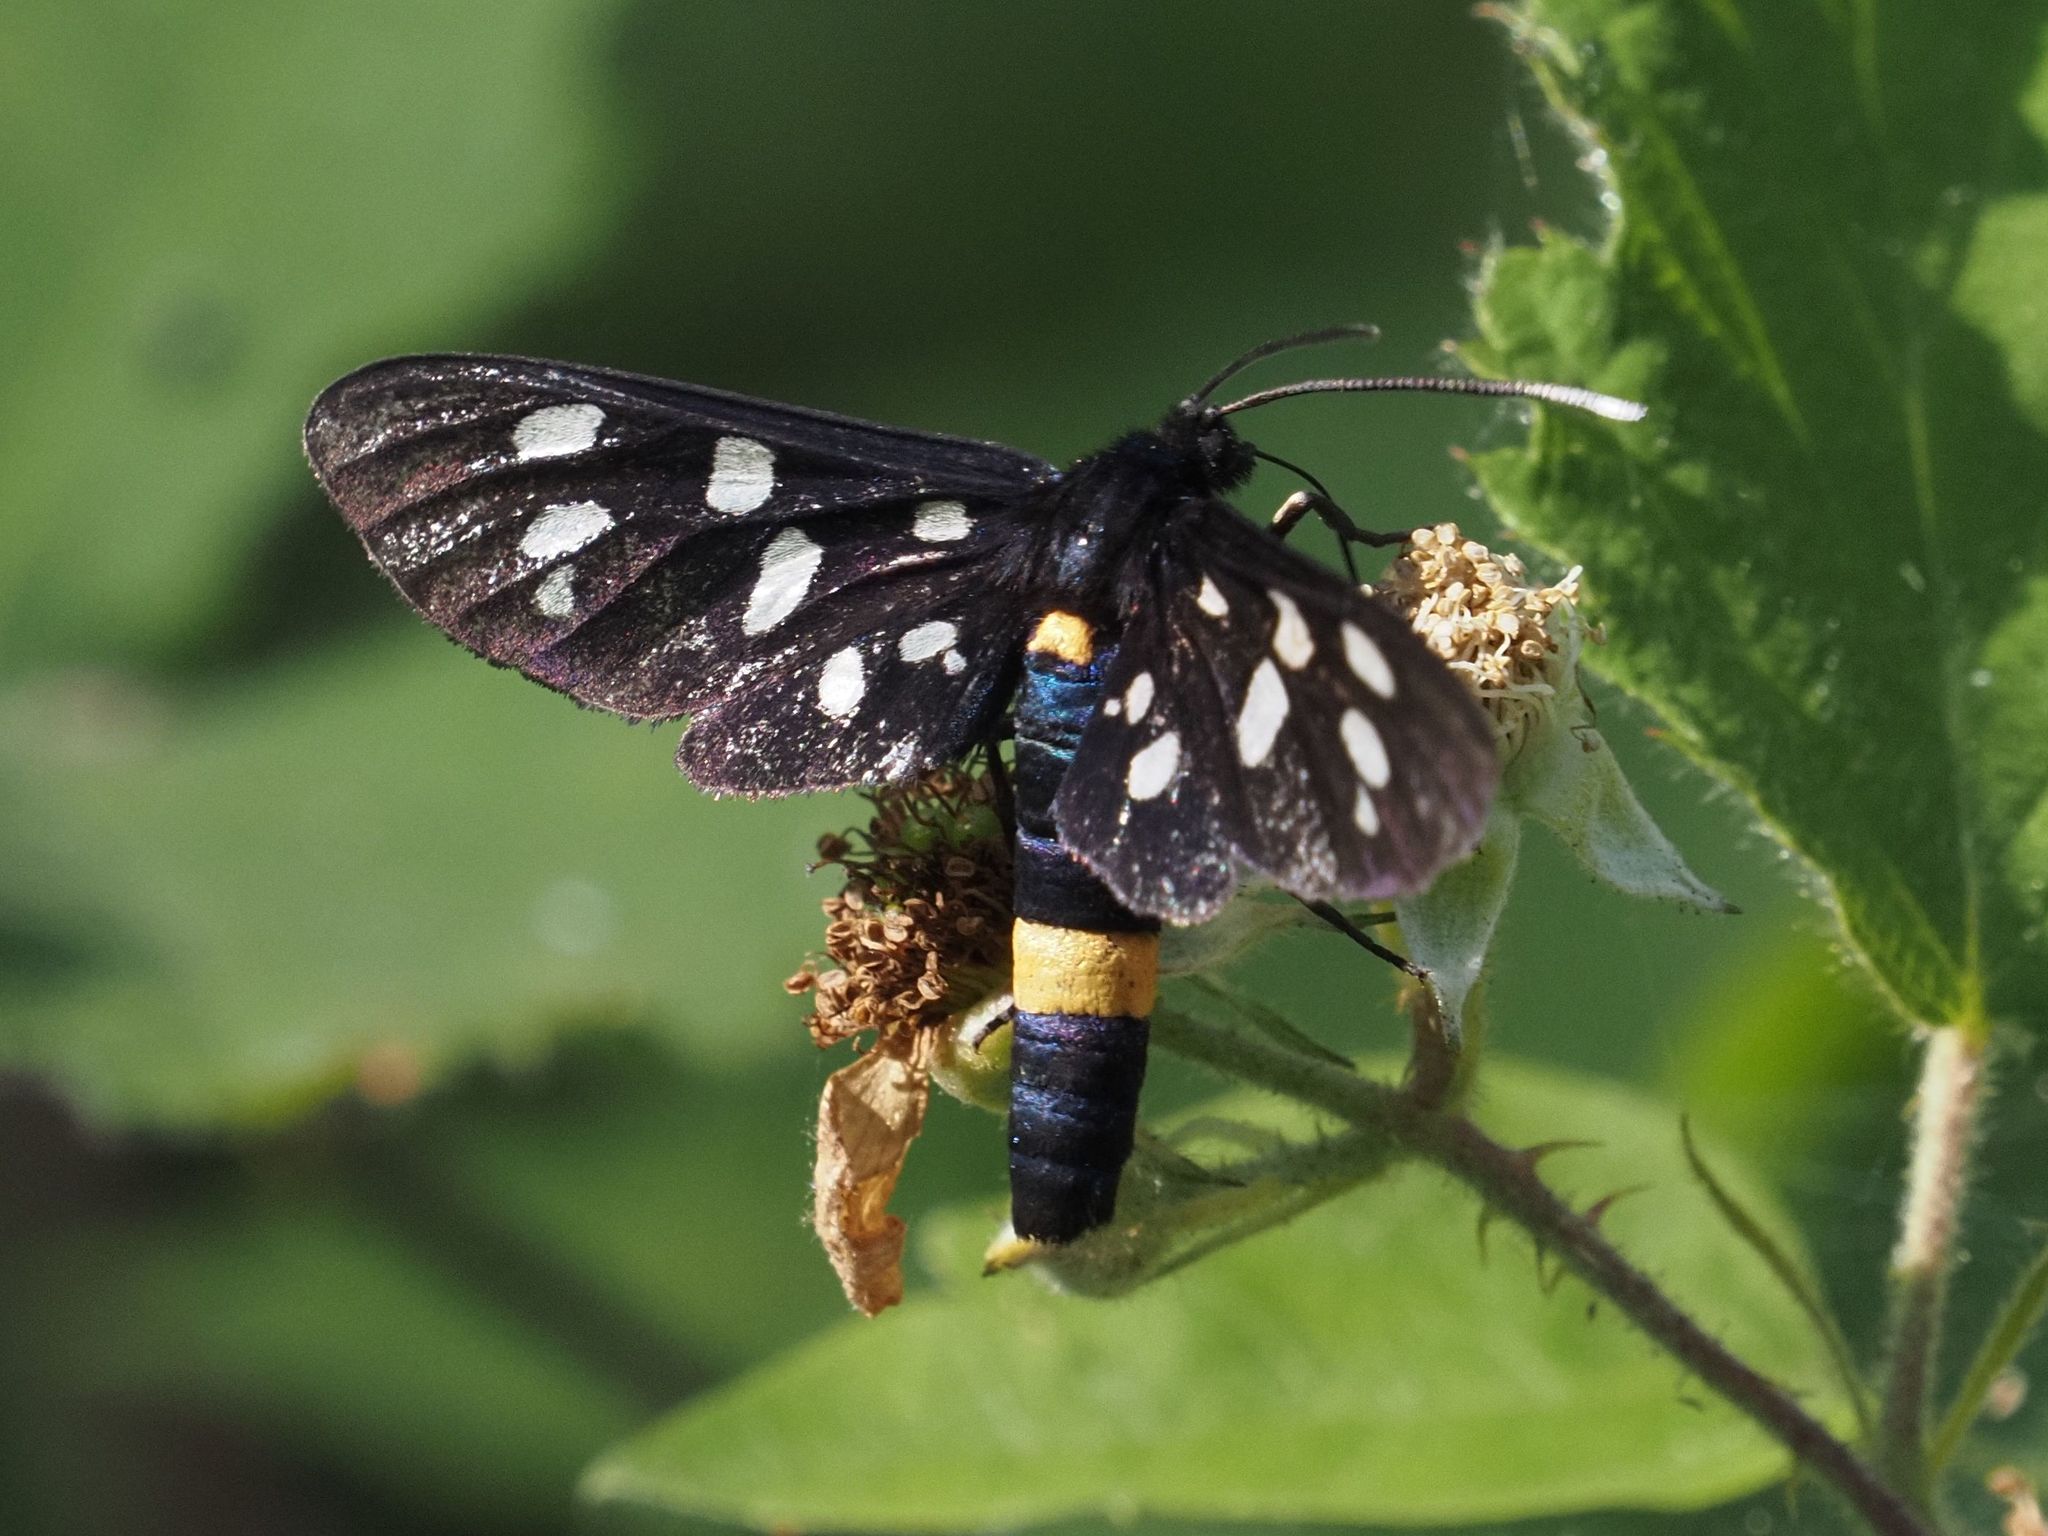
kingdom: Animalia
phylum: Arthropoda
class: Insecta
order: Lepidoptera
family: Erebidae
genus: Amata
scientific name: Amata phegea
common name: Nine-spotted
